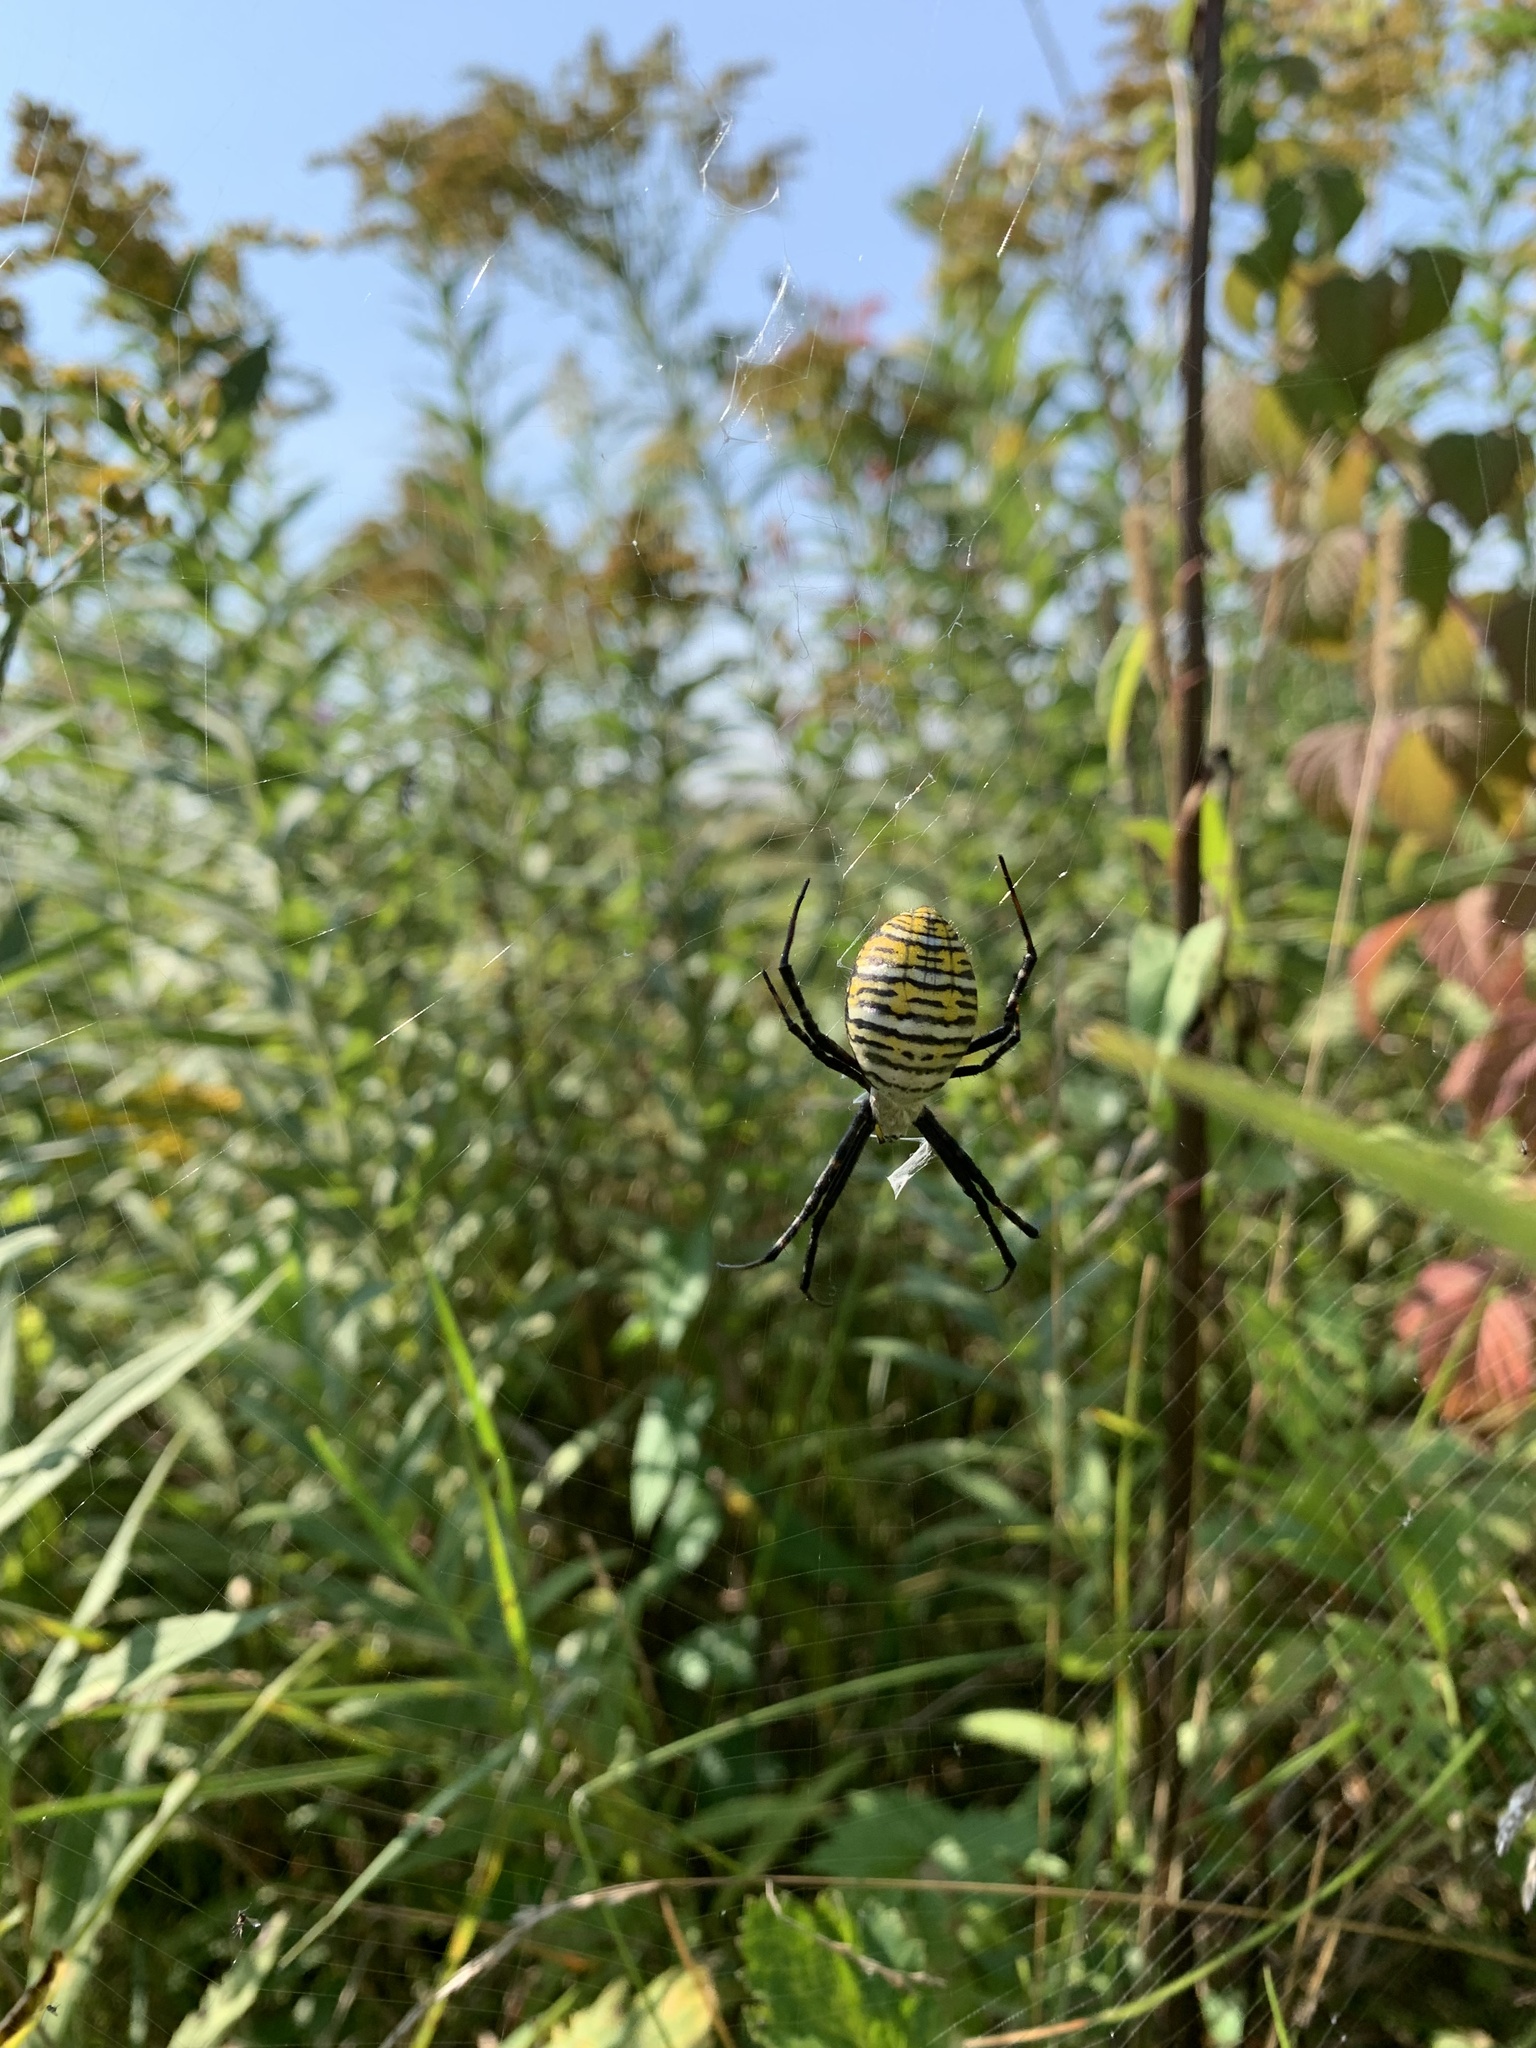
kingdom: Animalia
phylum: Arthropoda
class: Arachnida
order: Araneae
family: Araneidae
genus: Argiope
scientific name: Argiope trifasciata
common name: Banded garden spider
